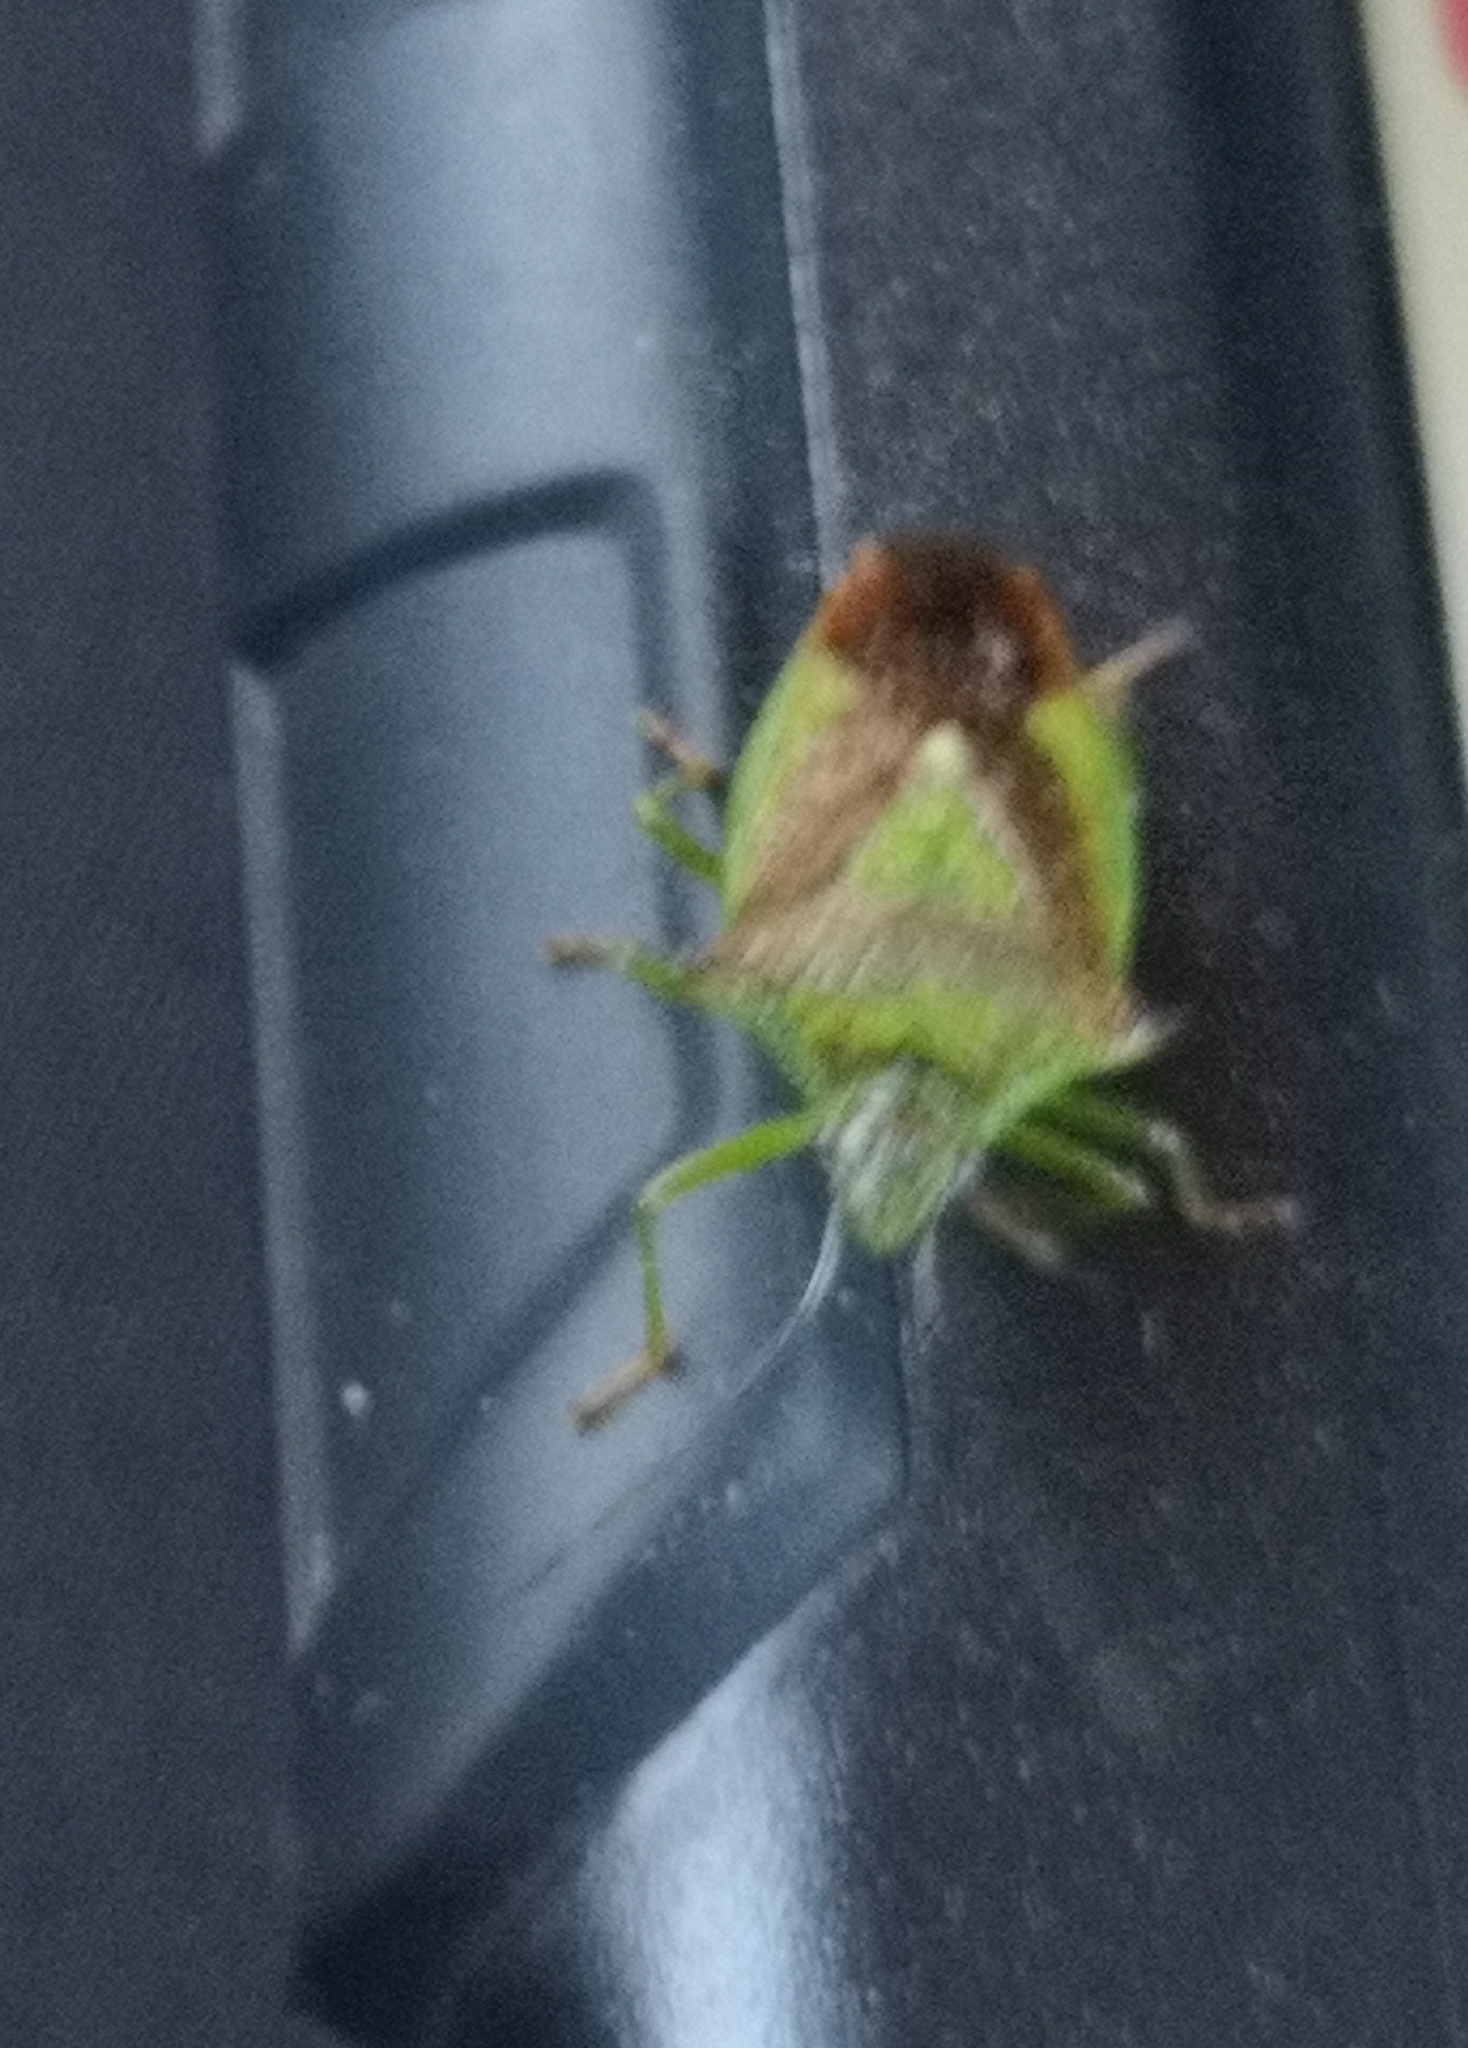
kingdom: Animalia
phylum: Arthropoda
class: Insecta
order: Hemiptera
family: Acanthosomatidae
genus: Acanthosoma
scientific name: Acanthosoma haemorrhoidale
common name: Hawthorn shieldbug
